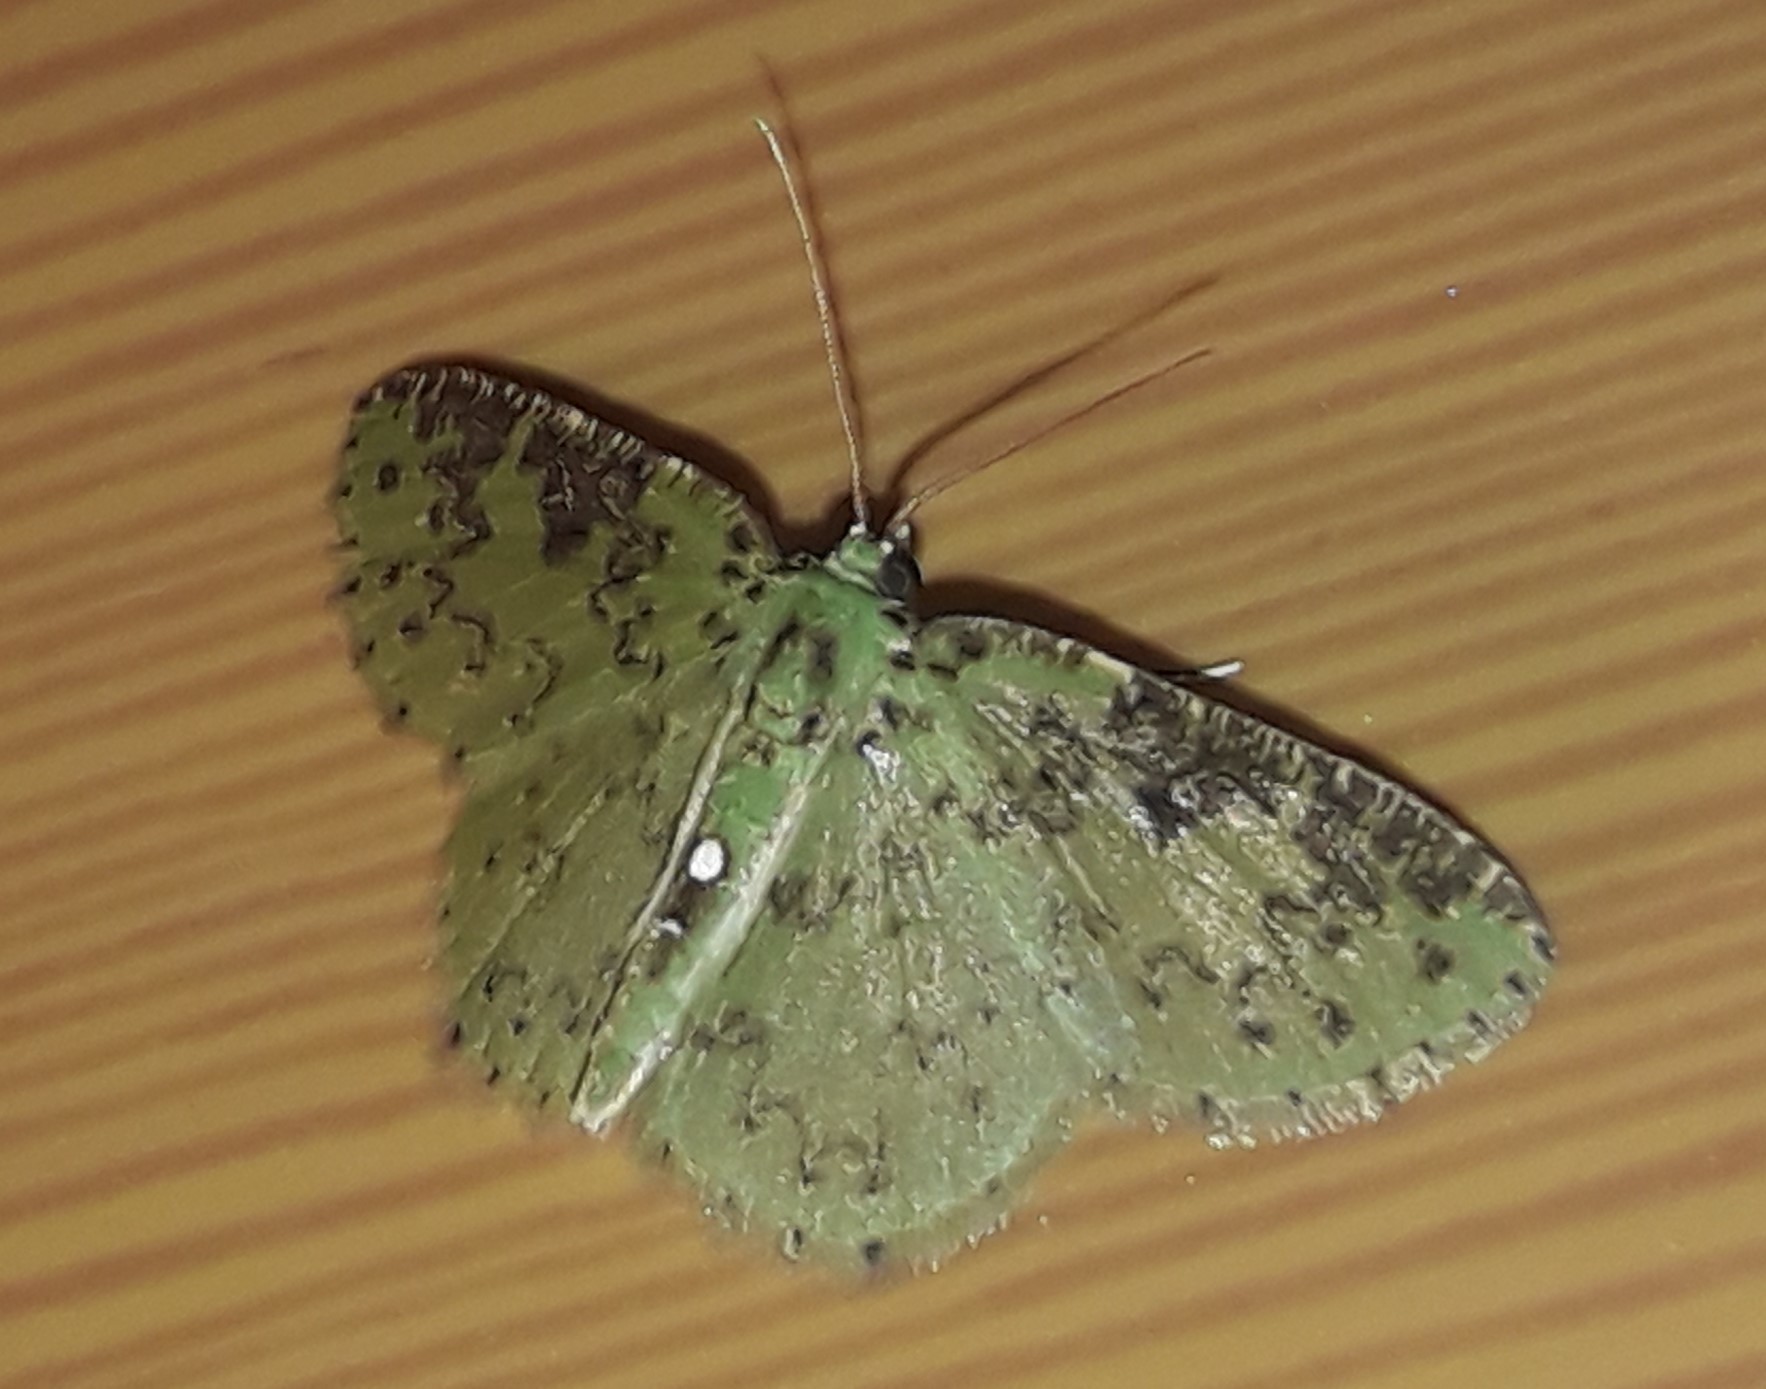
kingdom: Animalia
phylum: Arthropoda
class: Insecta
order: Lepidoptera
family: Geometridae
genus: Nemoria
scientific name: Nemoria adjunctaria
